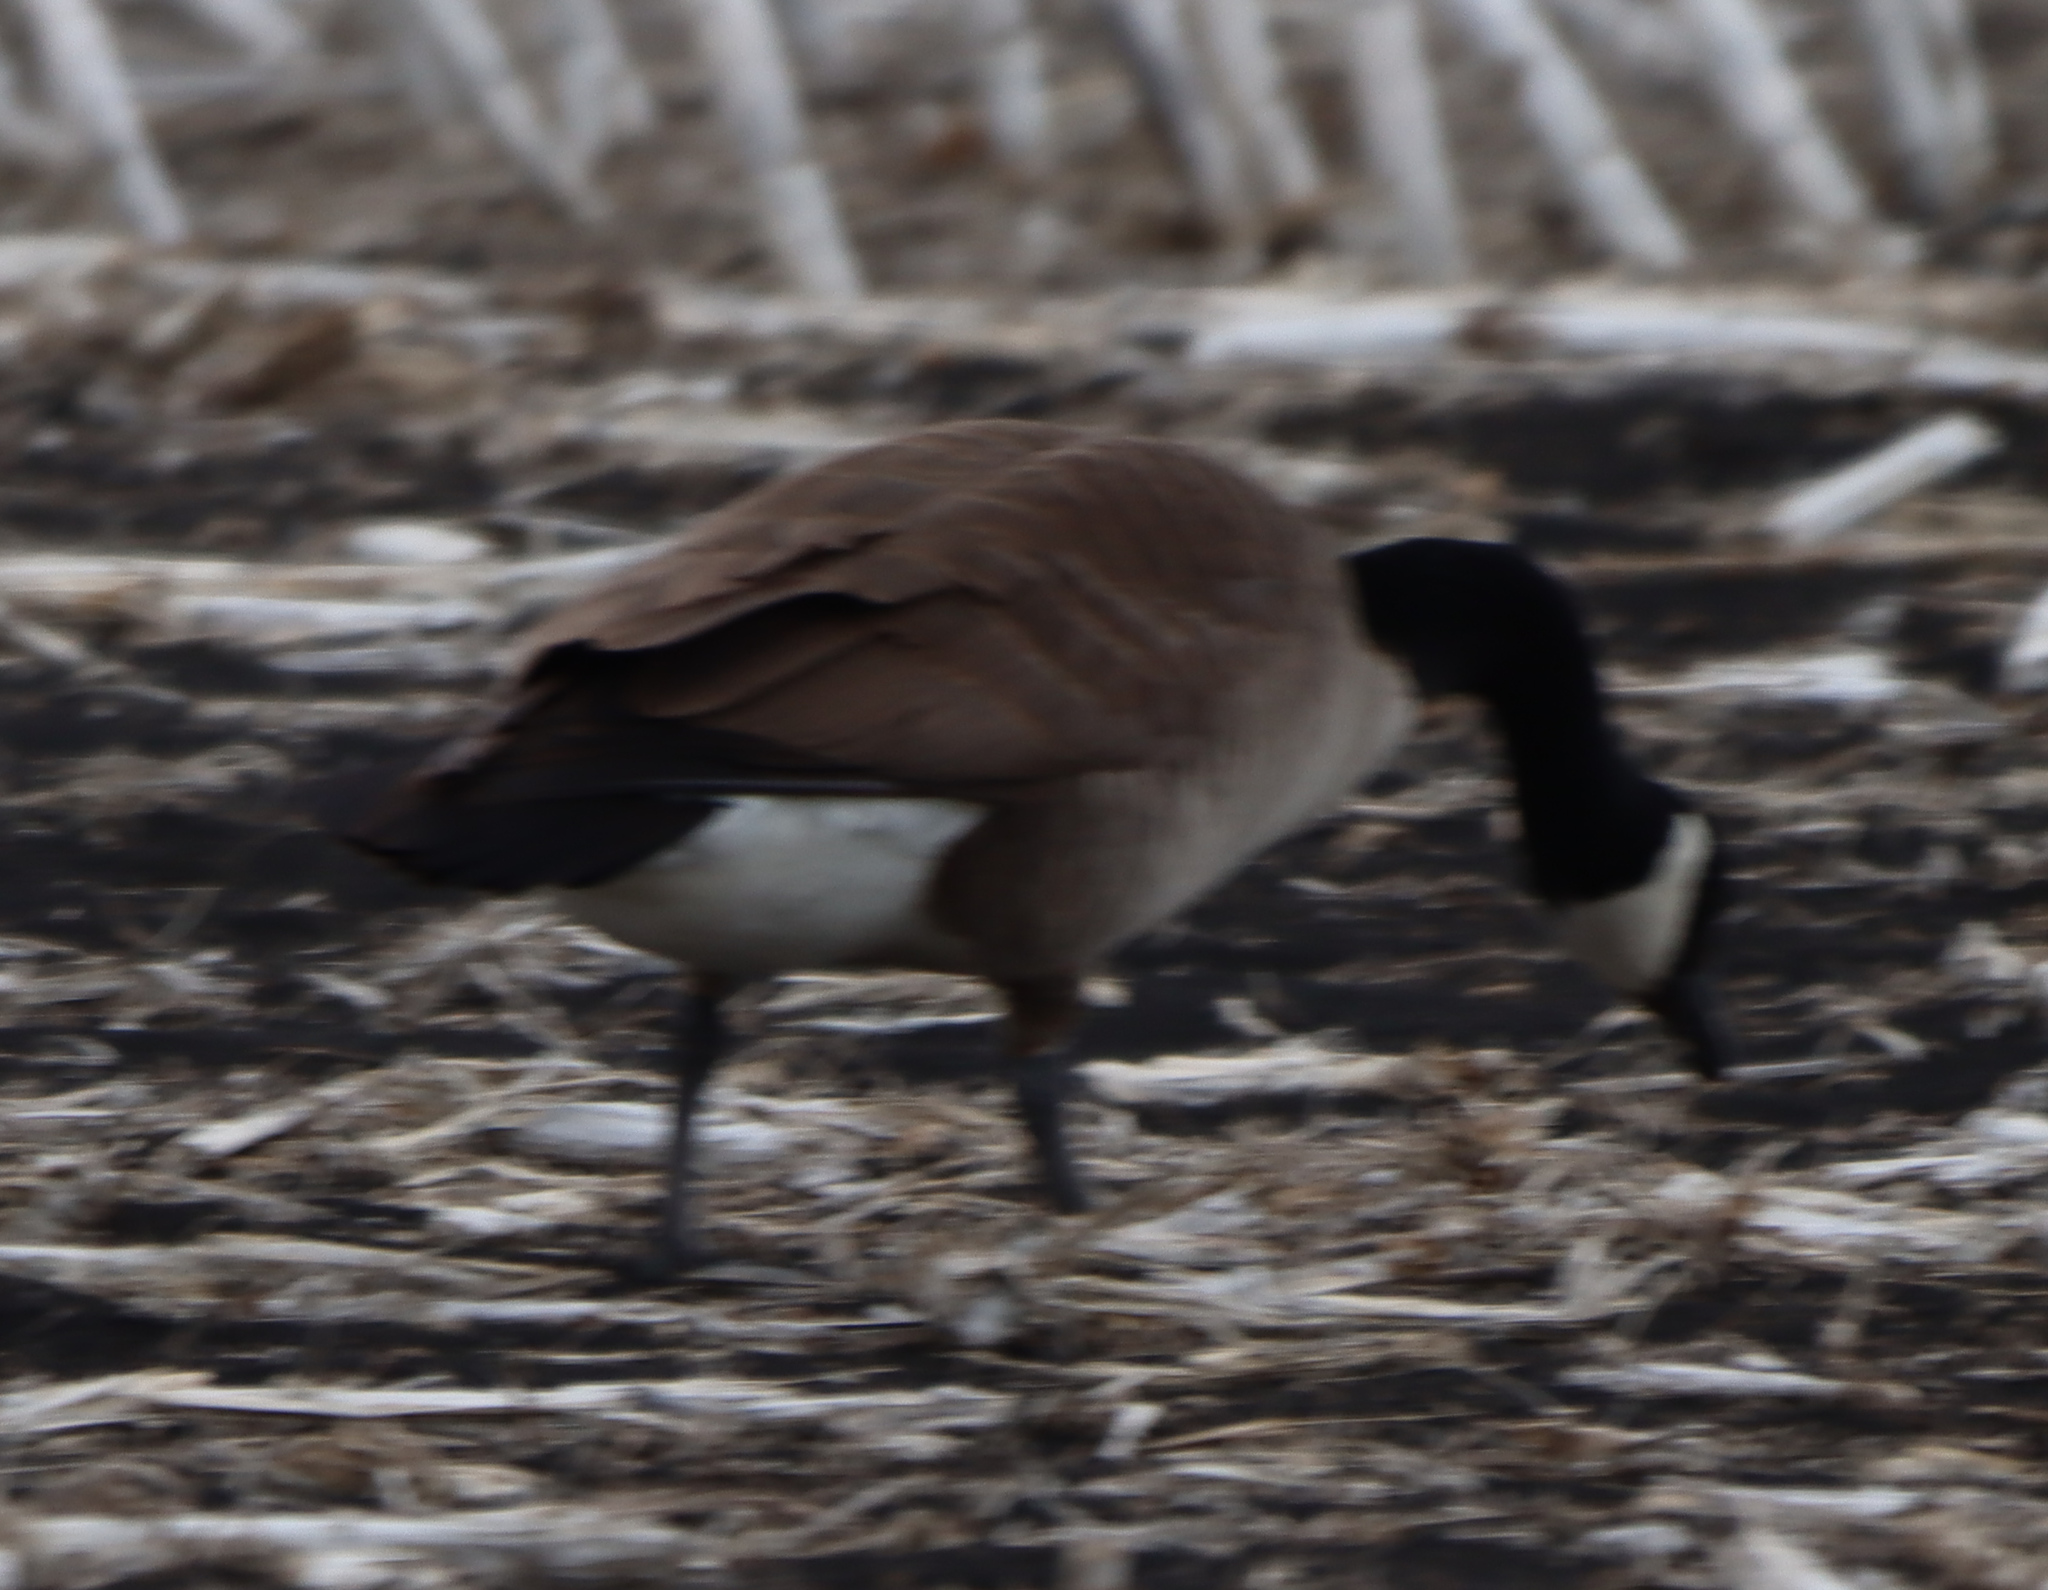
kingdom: Animalia
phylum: Chordata
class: Aves
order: Anseriformes
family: Anatidae
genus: Branta
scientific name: Branta canadensis
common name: Canada goose
